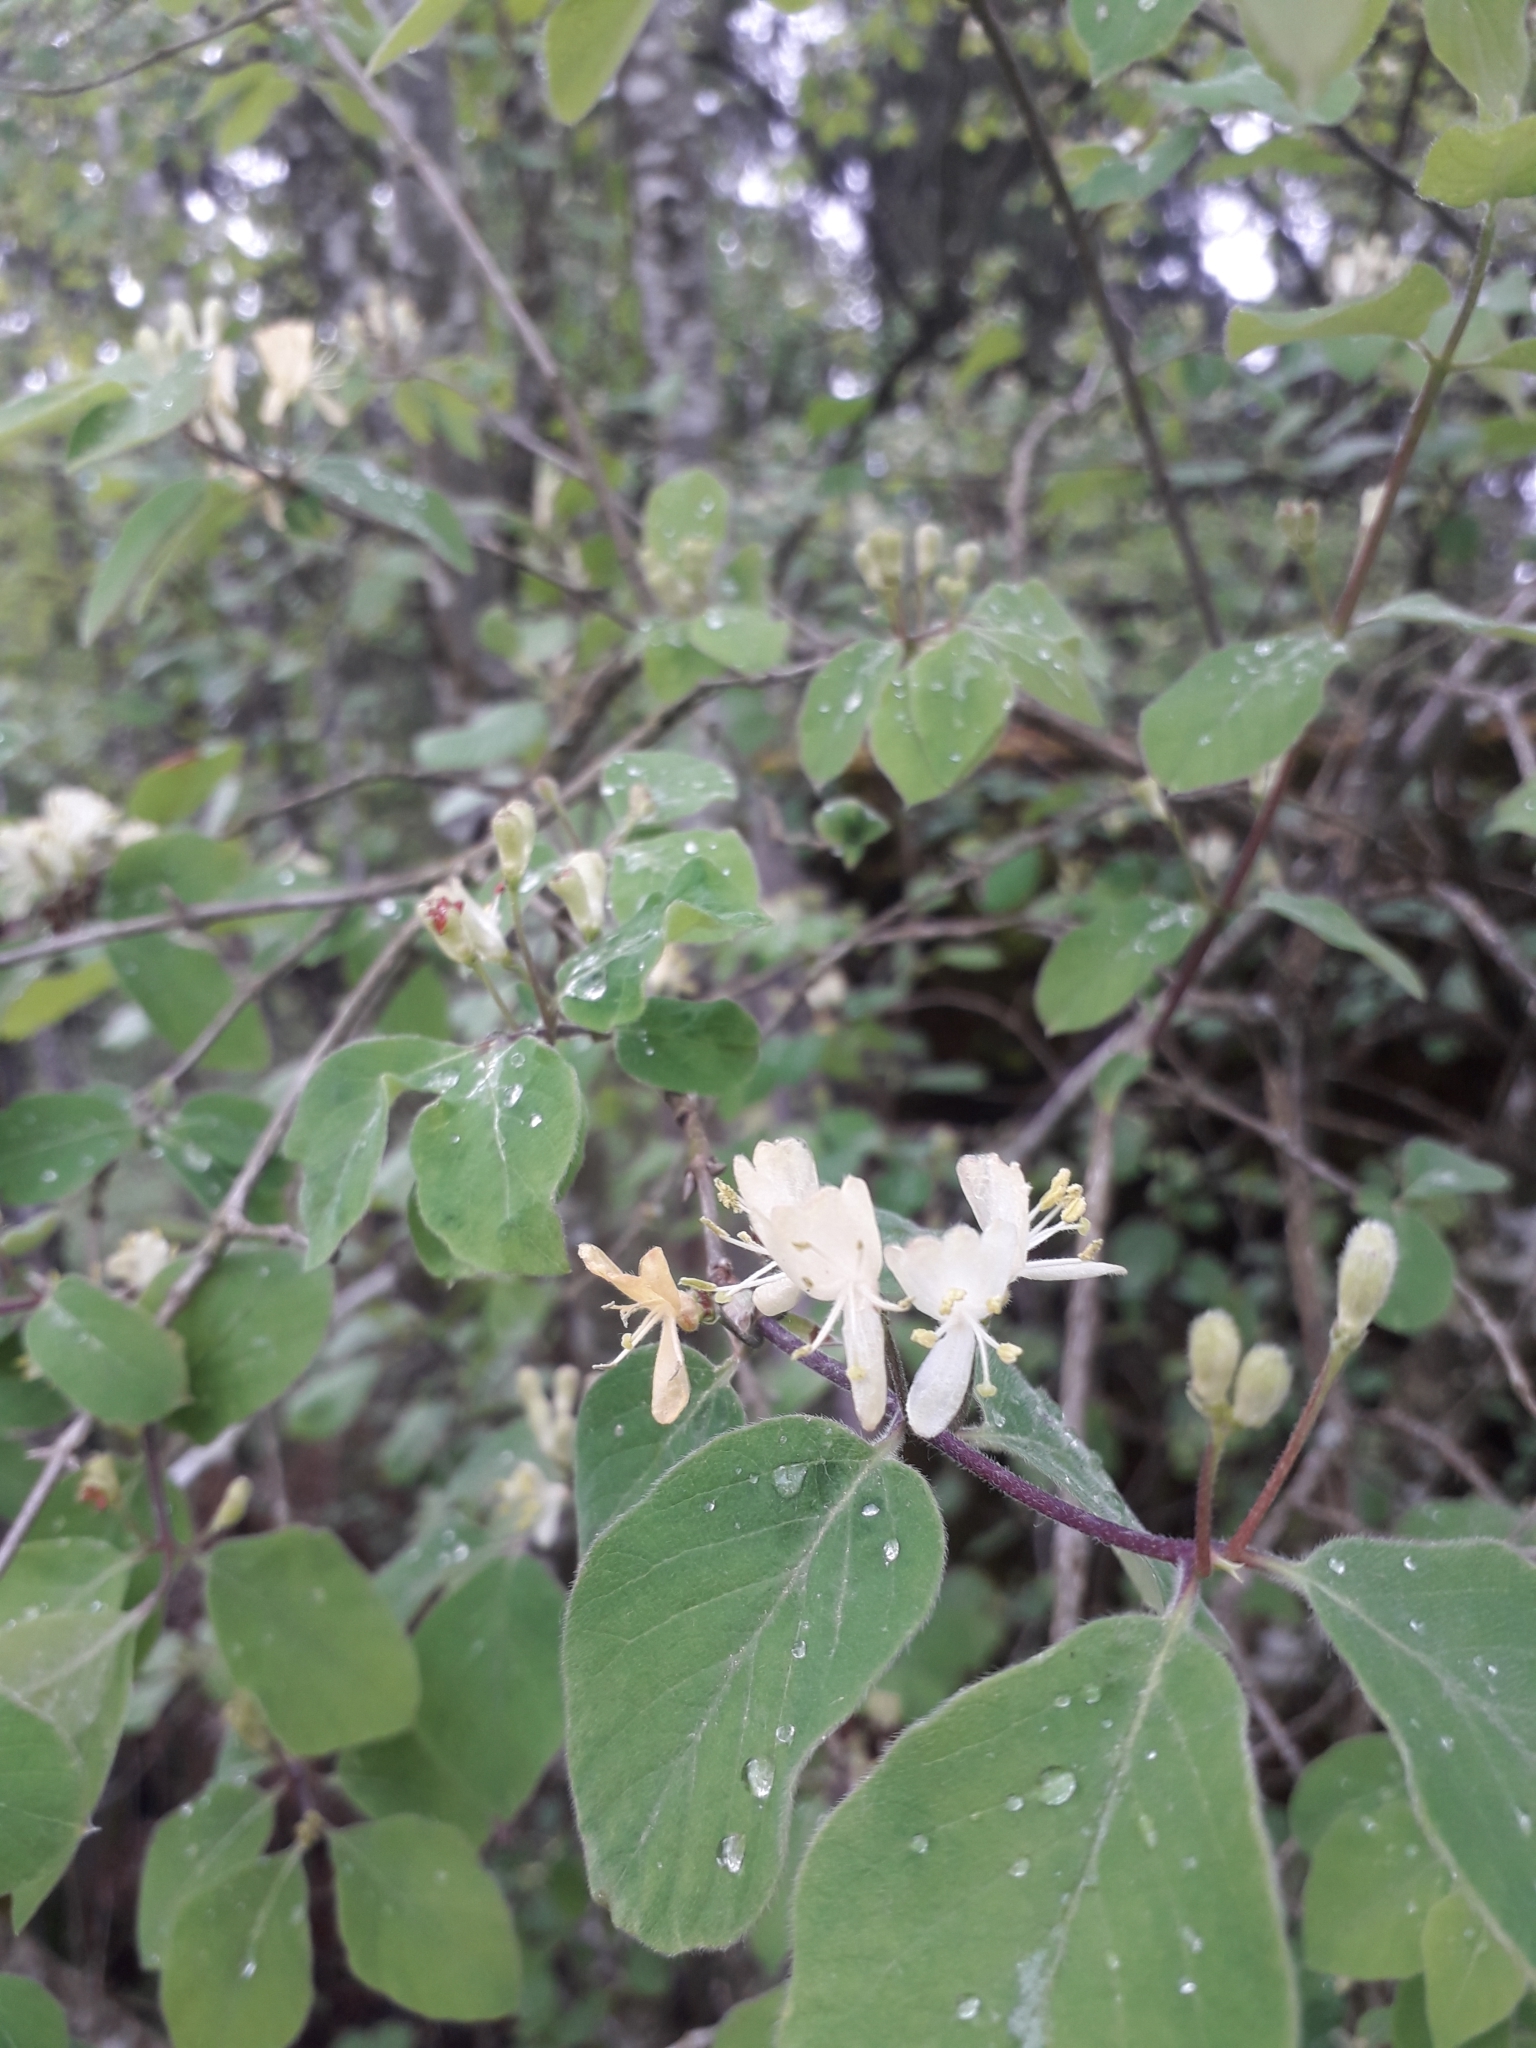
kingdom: Plantae
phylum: Tracheophyta
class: Magnoliopsida
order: Dipsacales
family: Caprifoliaceae
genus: Lonicera
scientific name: Lonicera xylosteum
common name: Fly honeysuckle
